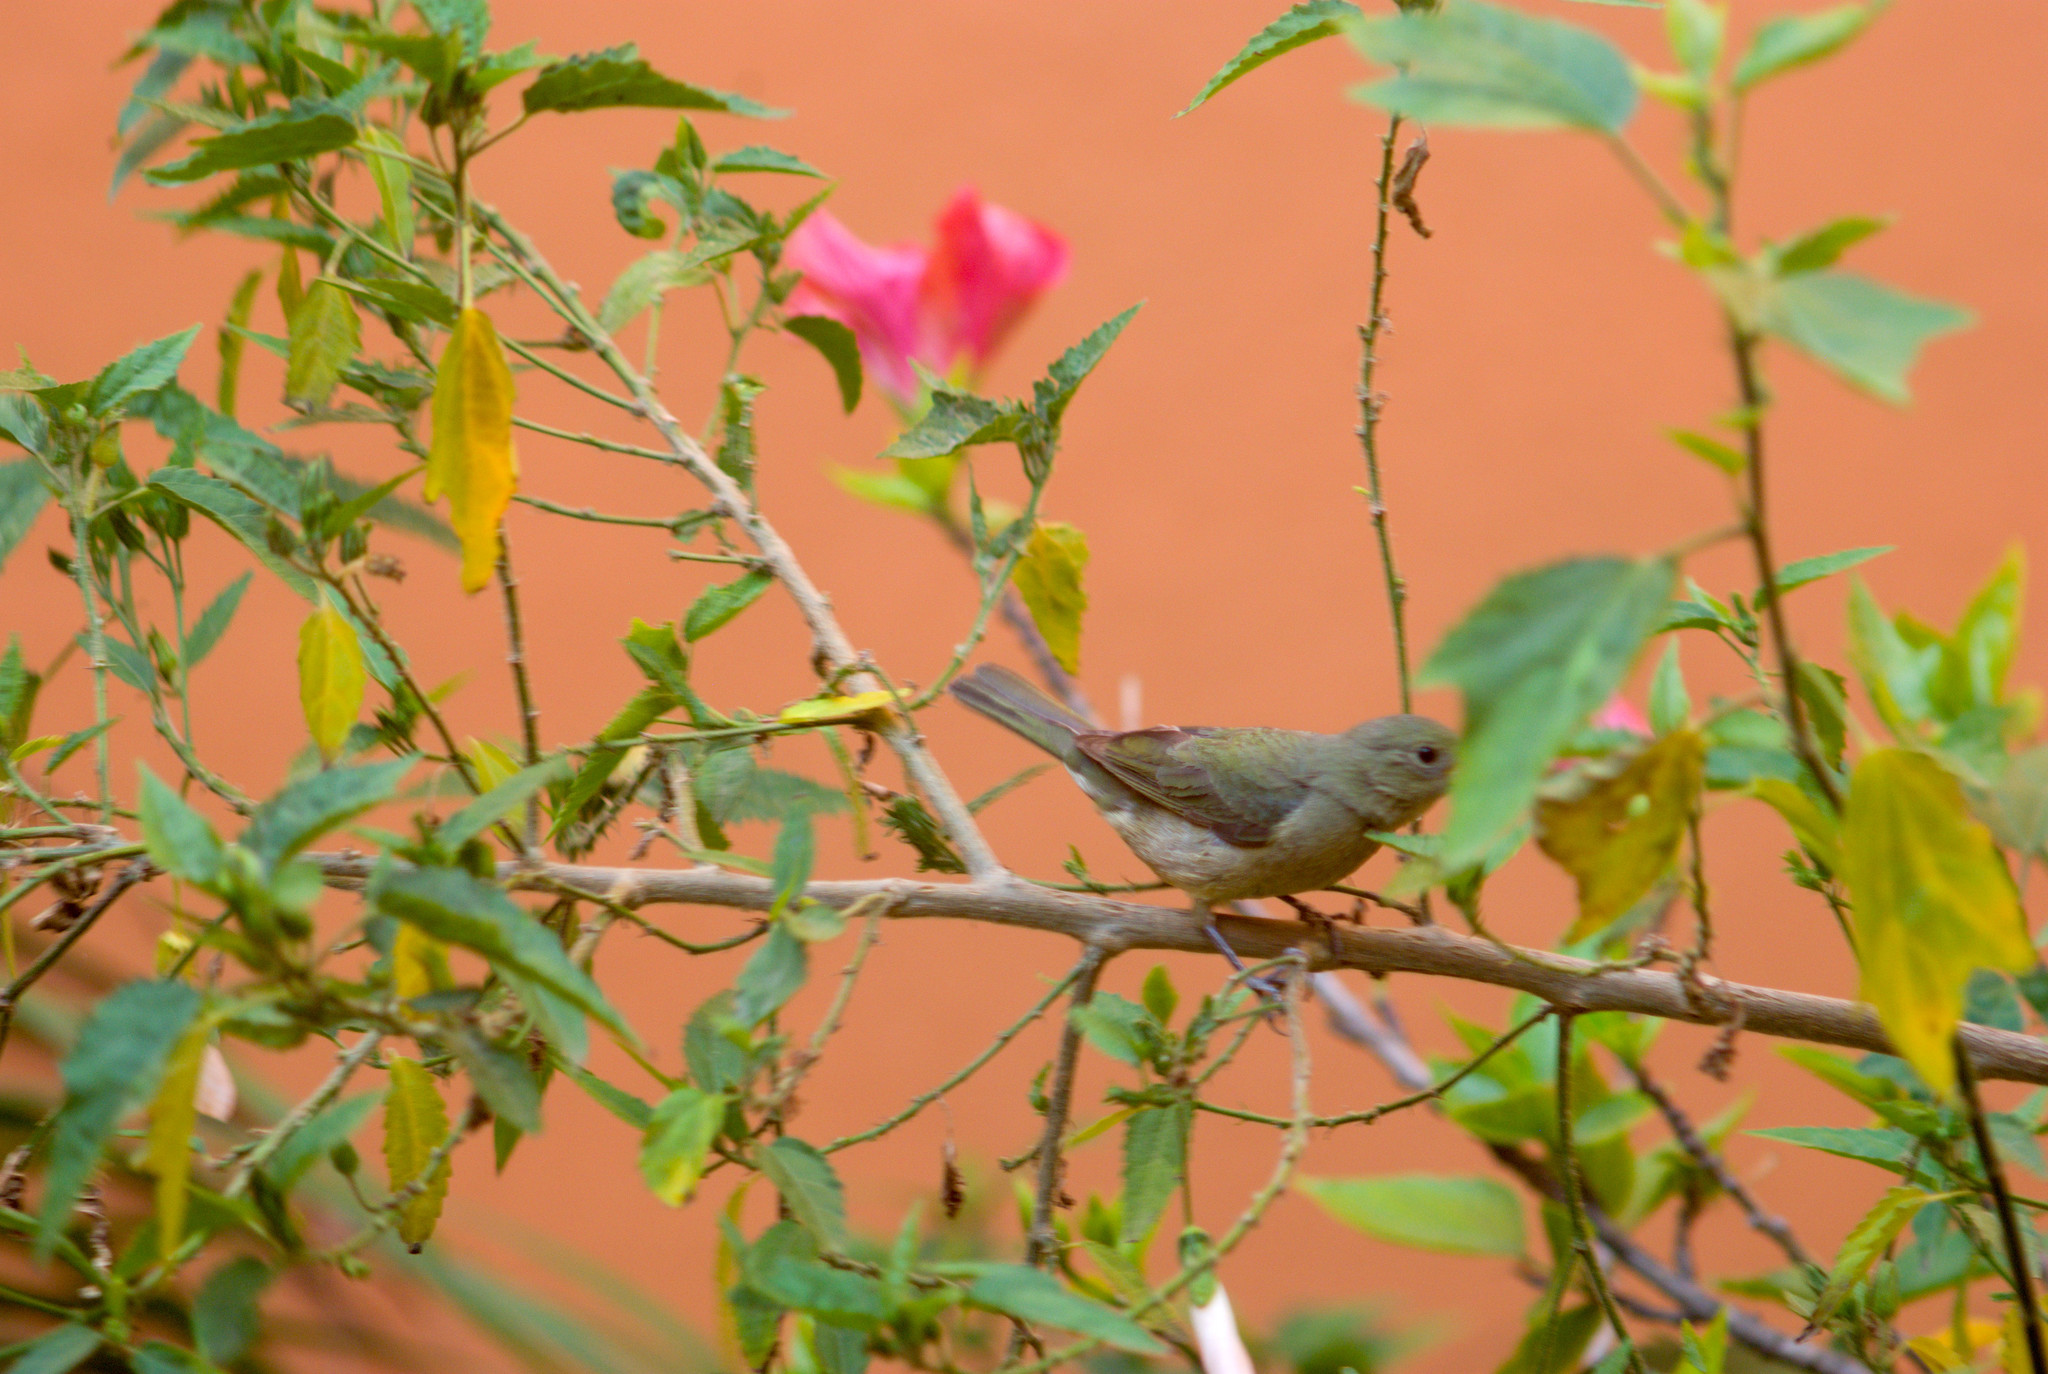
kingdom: Animalia
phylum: Chordata
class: Aves
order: Passeriformes
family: Cardinalidae
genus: Passerina
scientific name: Passerina ciris
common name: Painted bunting
